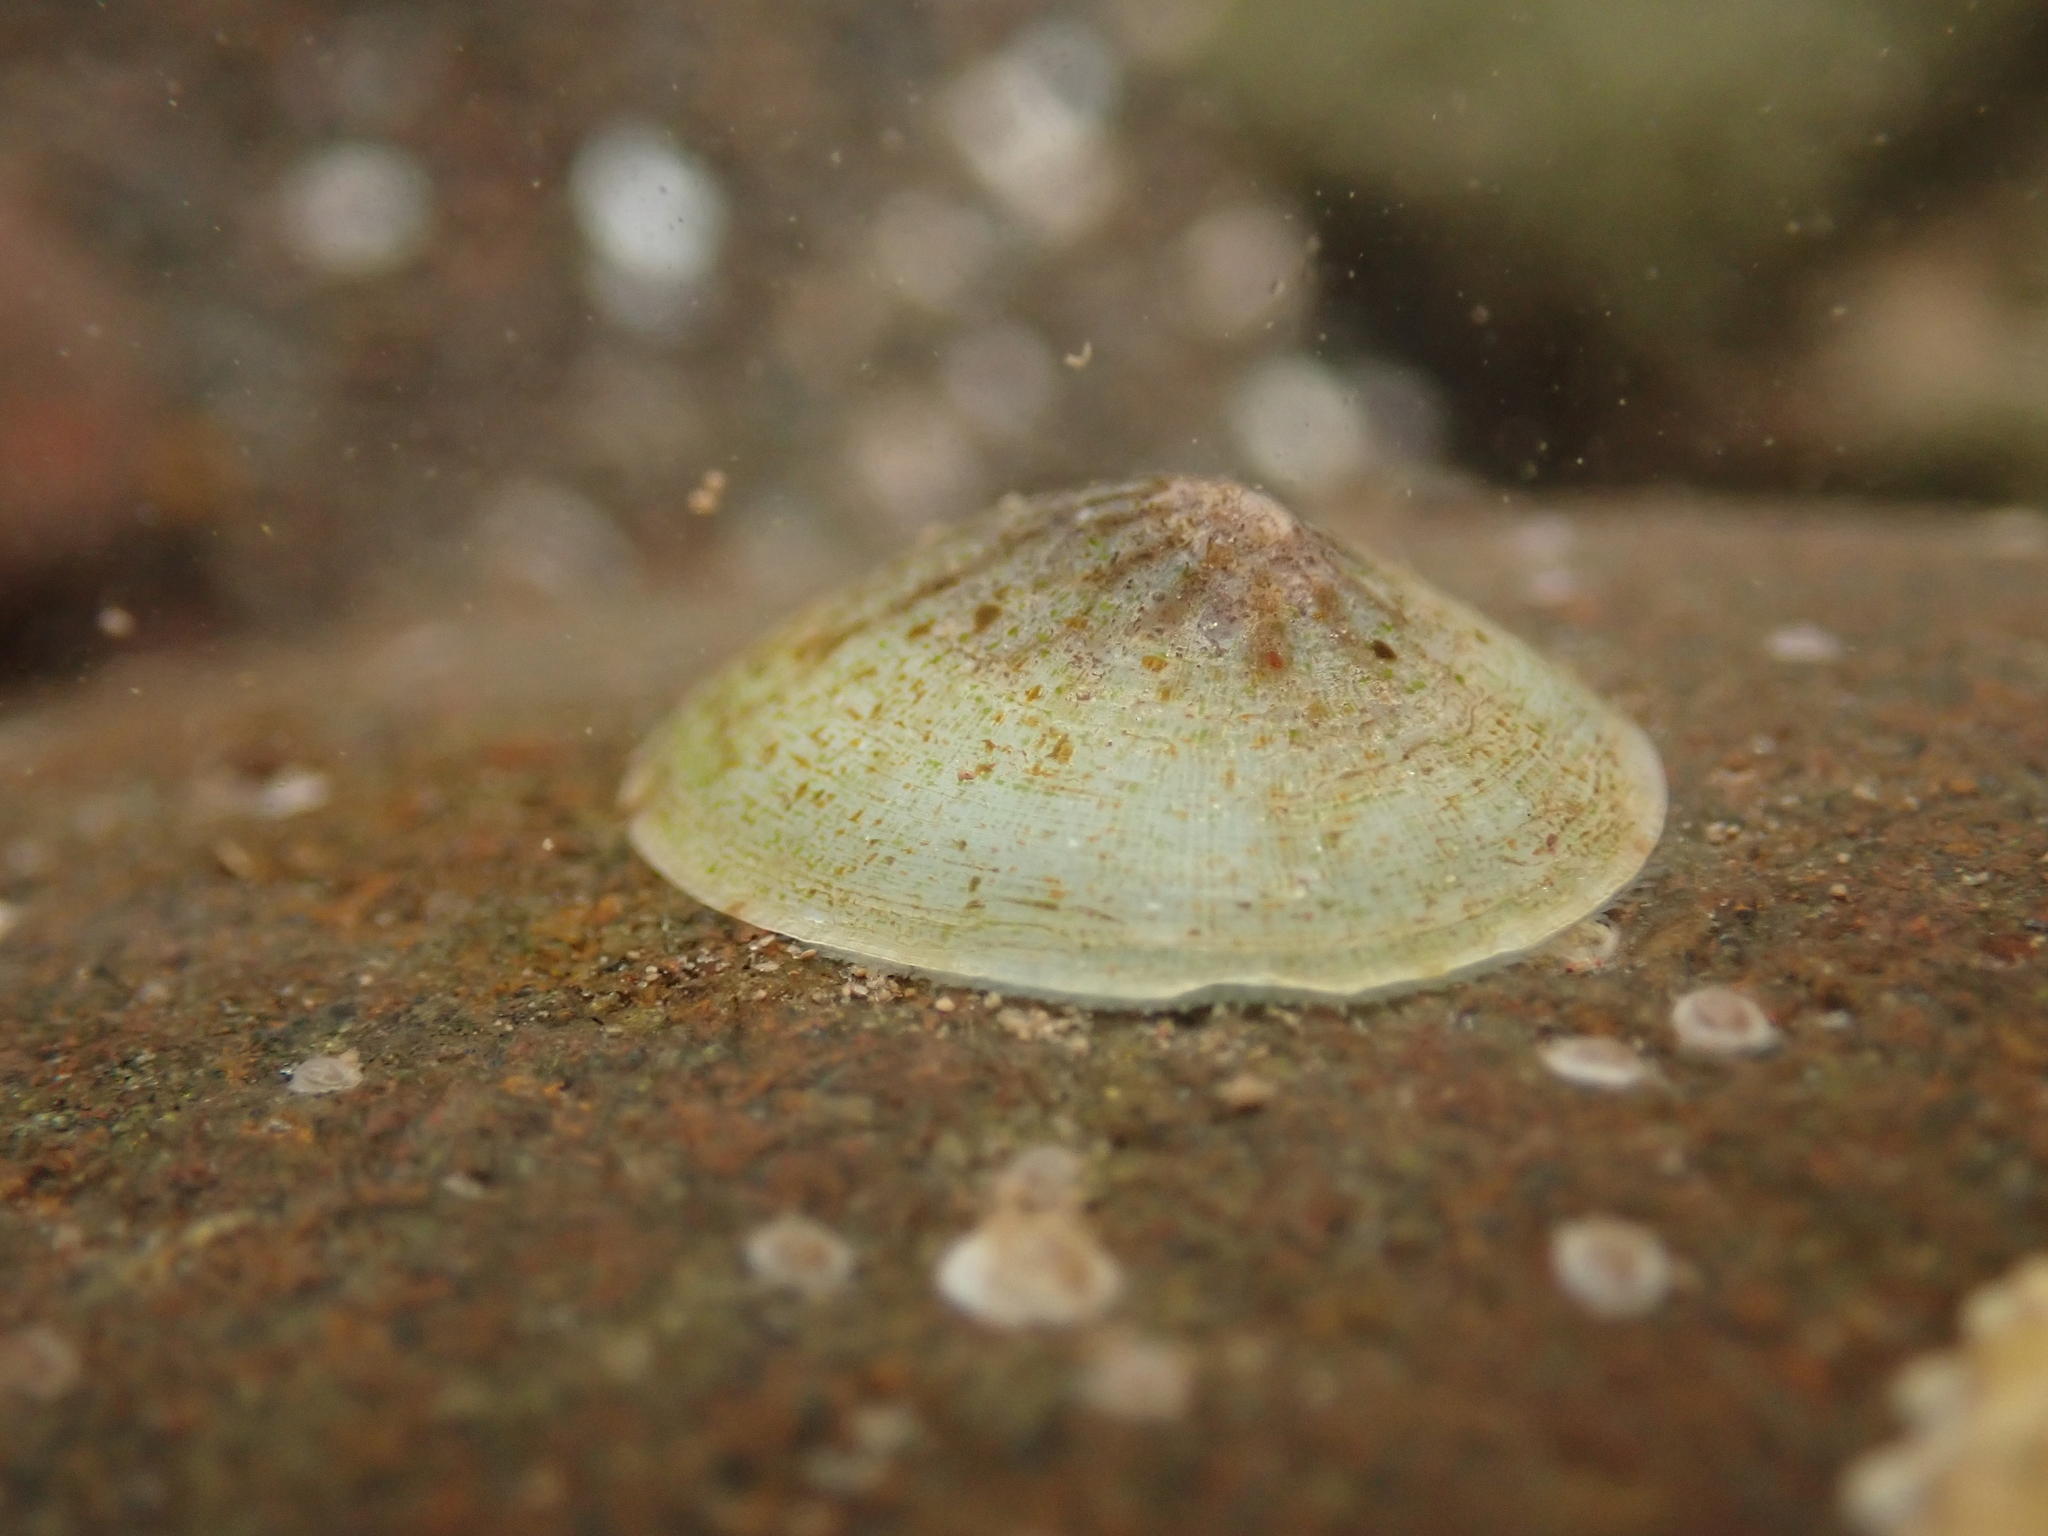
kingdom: Animalia
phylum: Mollusca
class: Gastropoda
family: Lottiidae
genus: Testudinalia
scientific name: Testudinalia testudinalis
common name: Common tortoiseshell limpet
